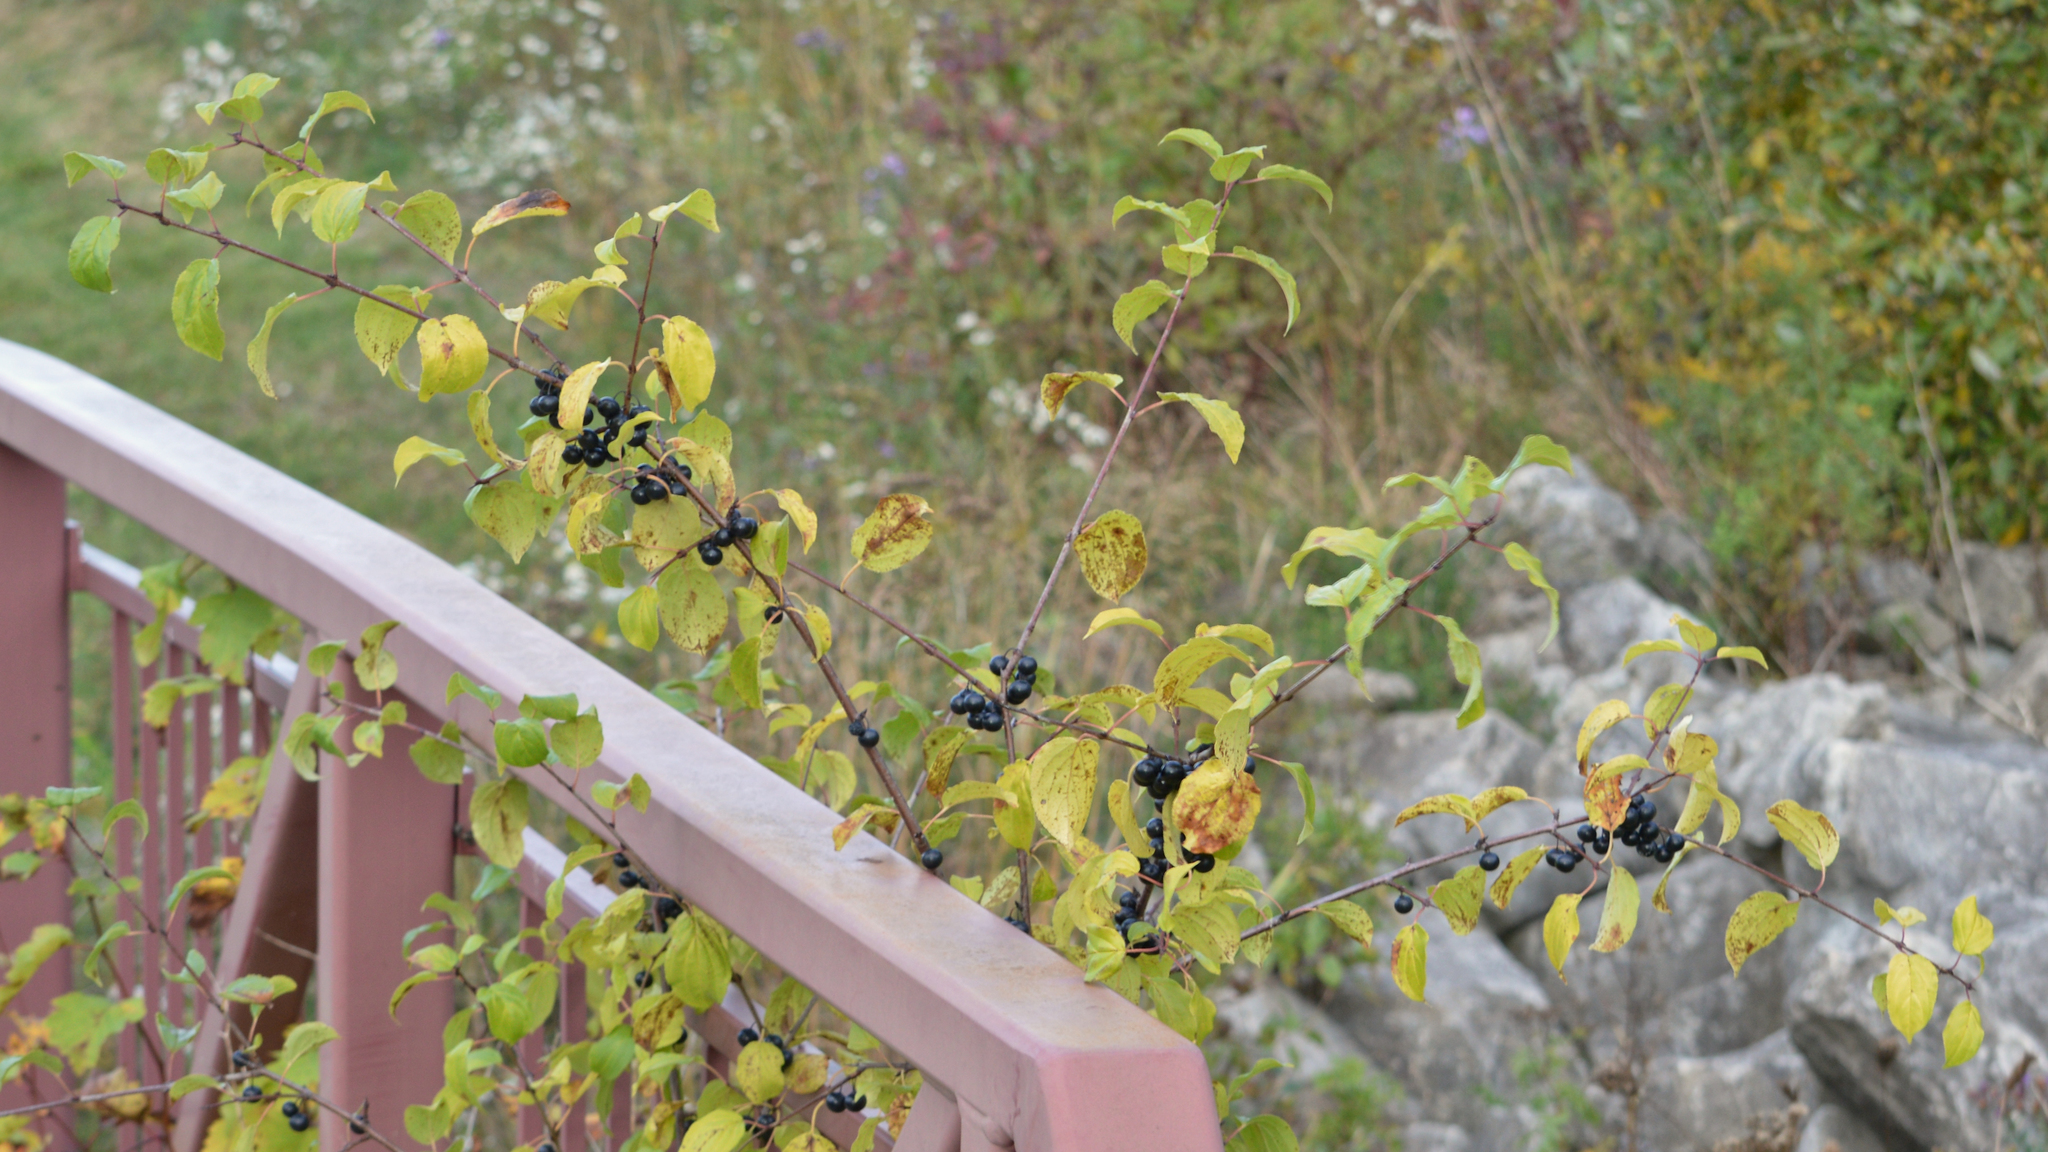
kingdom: Plantae
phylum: Tracheophyta
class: Magnoliopsida
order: Rosales
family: Rhamnaceae
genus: Rhamnus
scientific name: Rhamnus cathartica
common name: Common buckthorn
